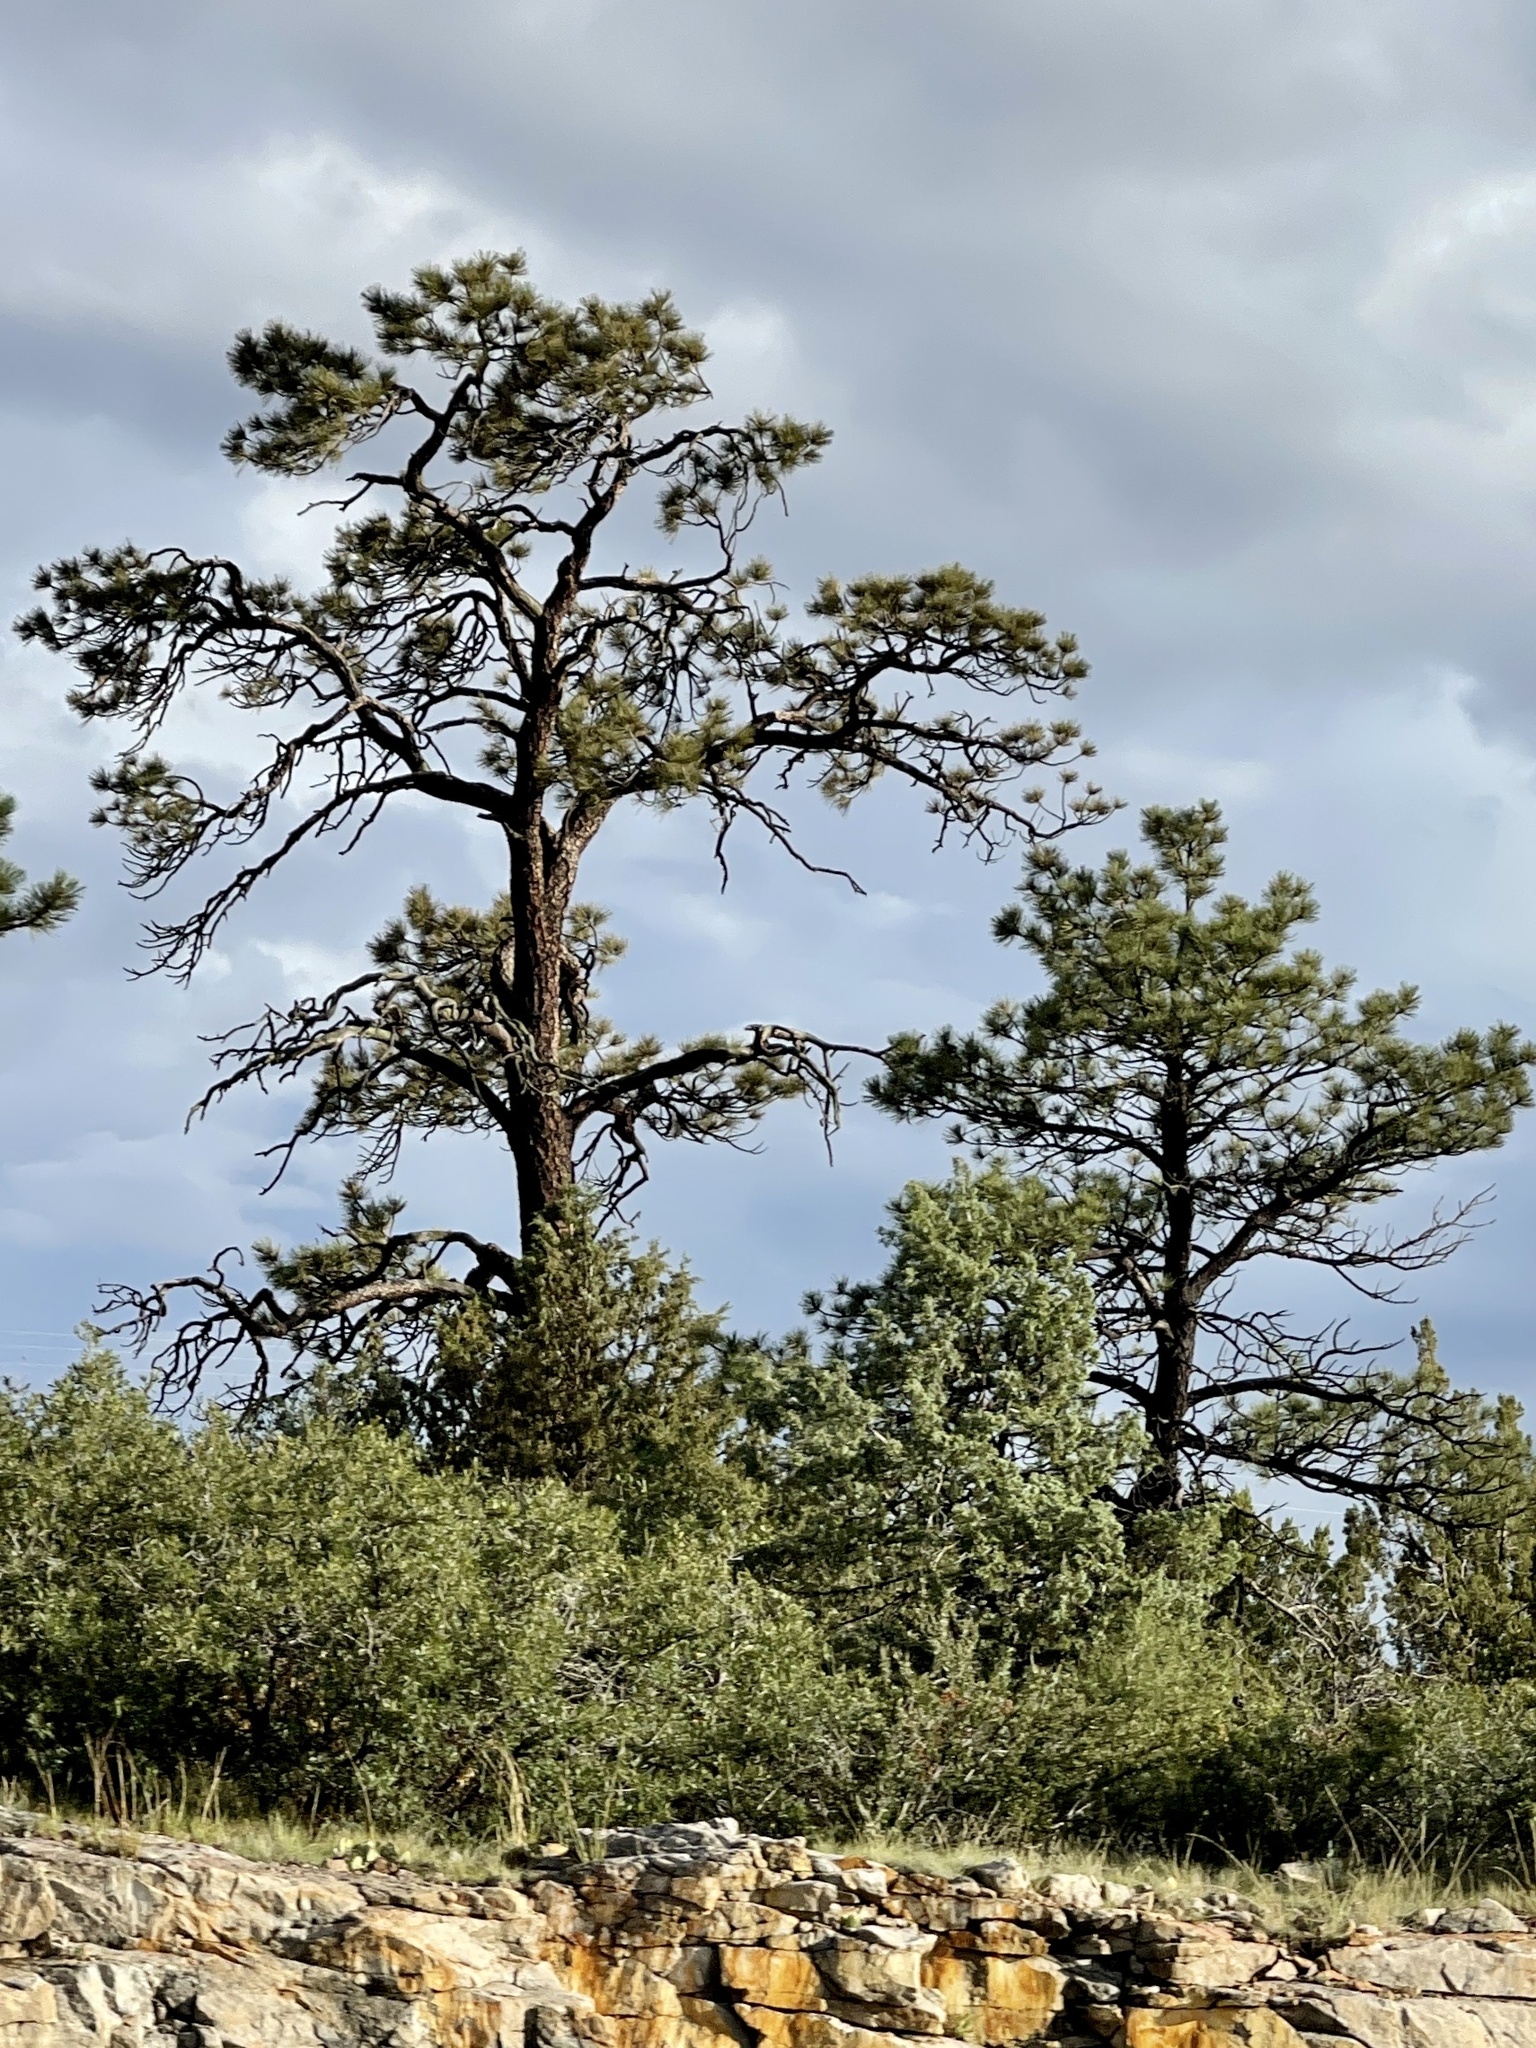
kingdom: Plantae
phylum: Tracheophyta
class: Pinopsida
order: Pinales
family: Pinaceae
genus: Pinus
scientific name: Pinus ponderosa
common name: Western yellow-pine
